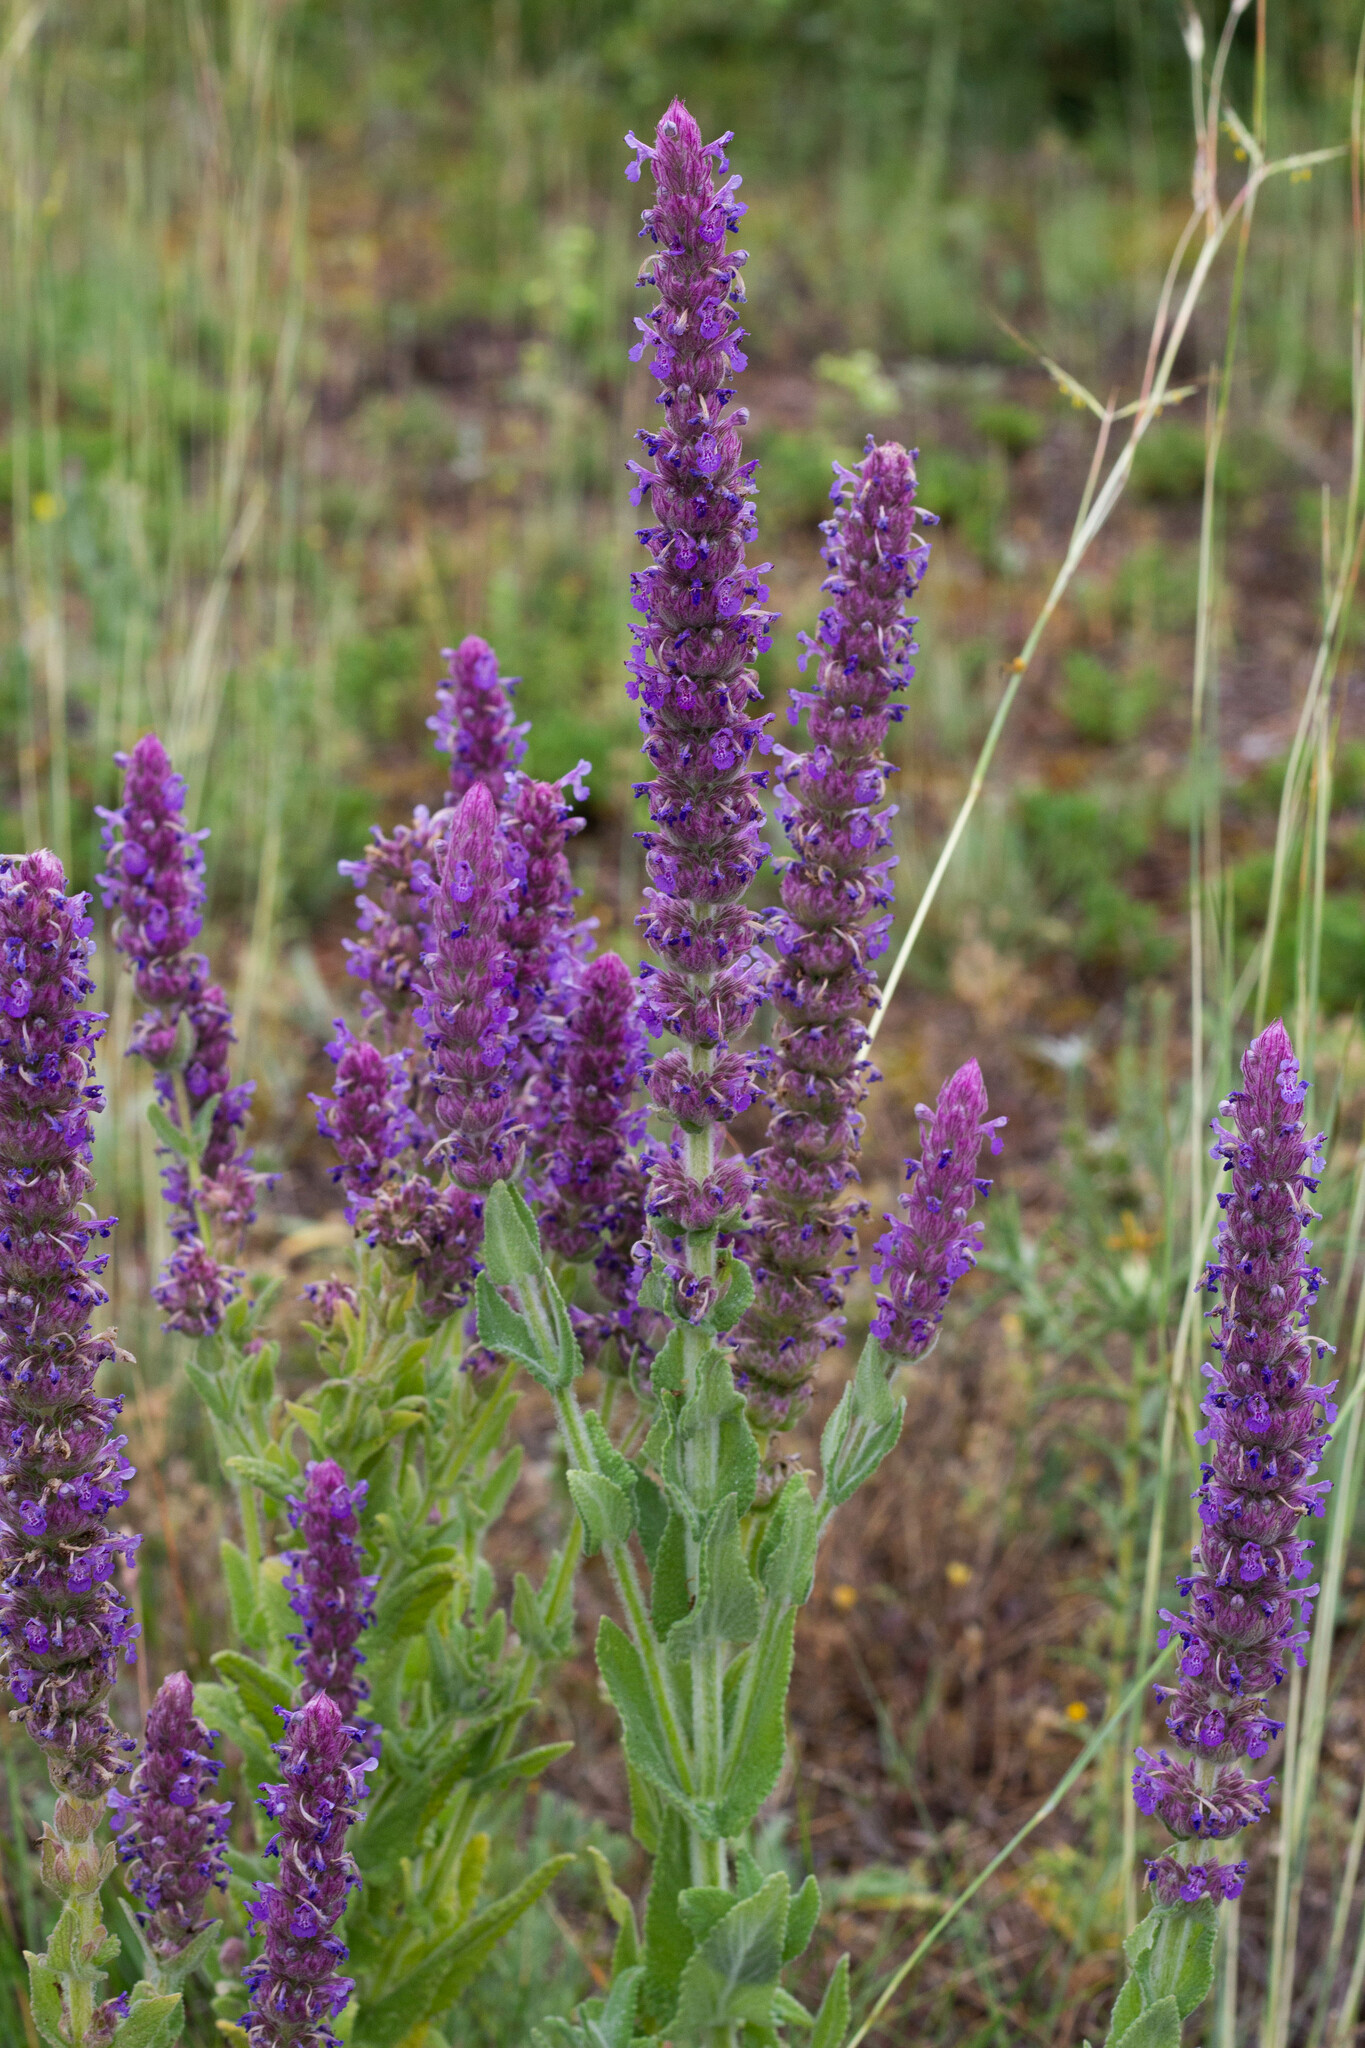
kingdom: Plantae
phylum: Tracheophyta
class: Magnoliopsida
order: Lamiales
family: Lamiaceae
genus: Nepeta
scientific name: Nepeta tuberosa
